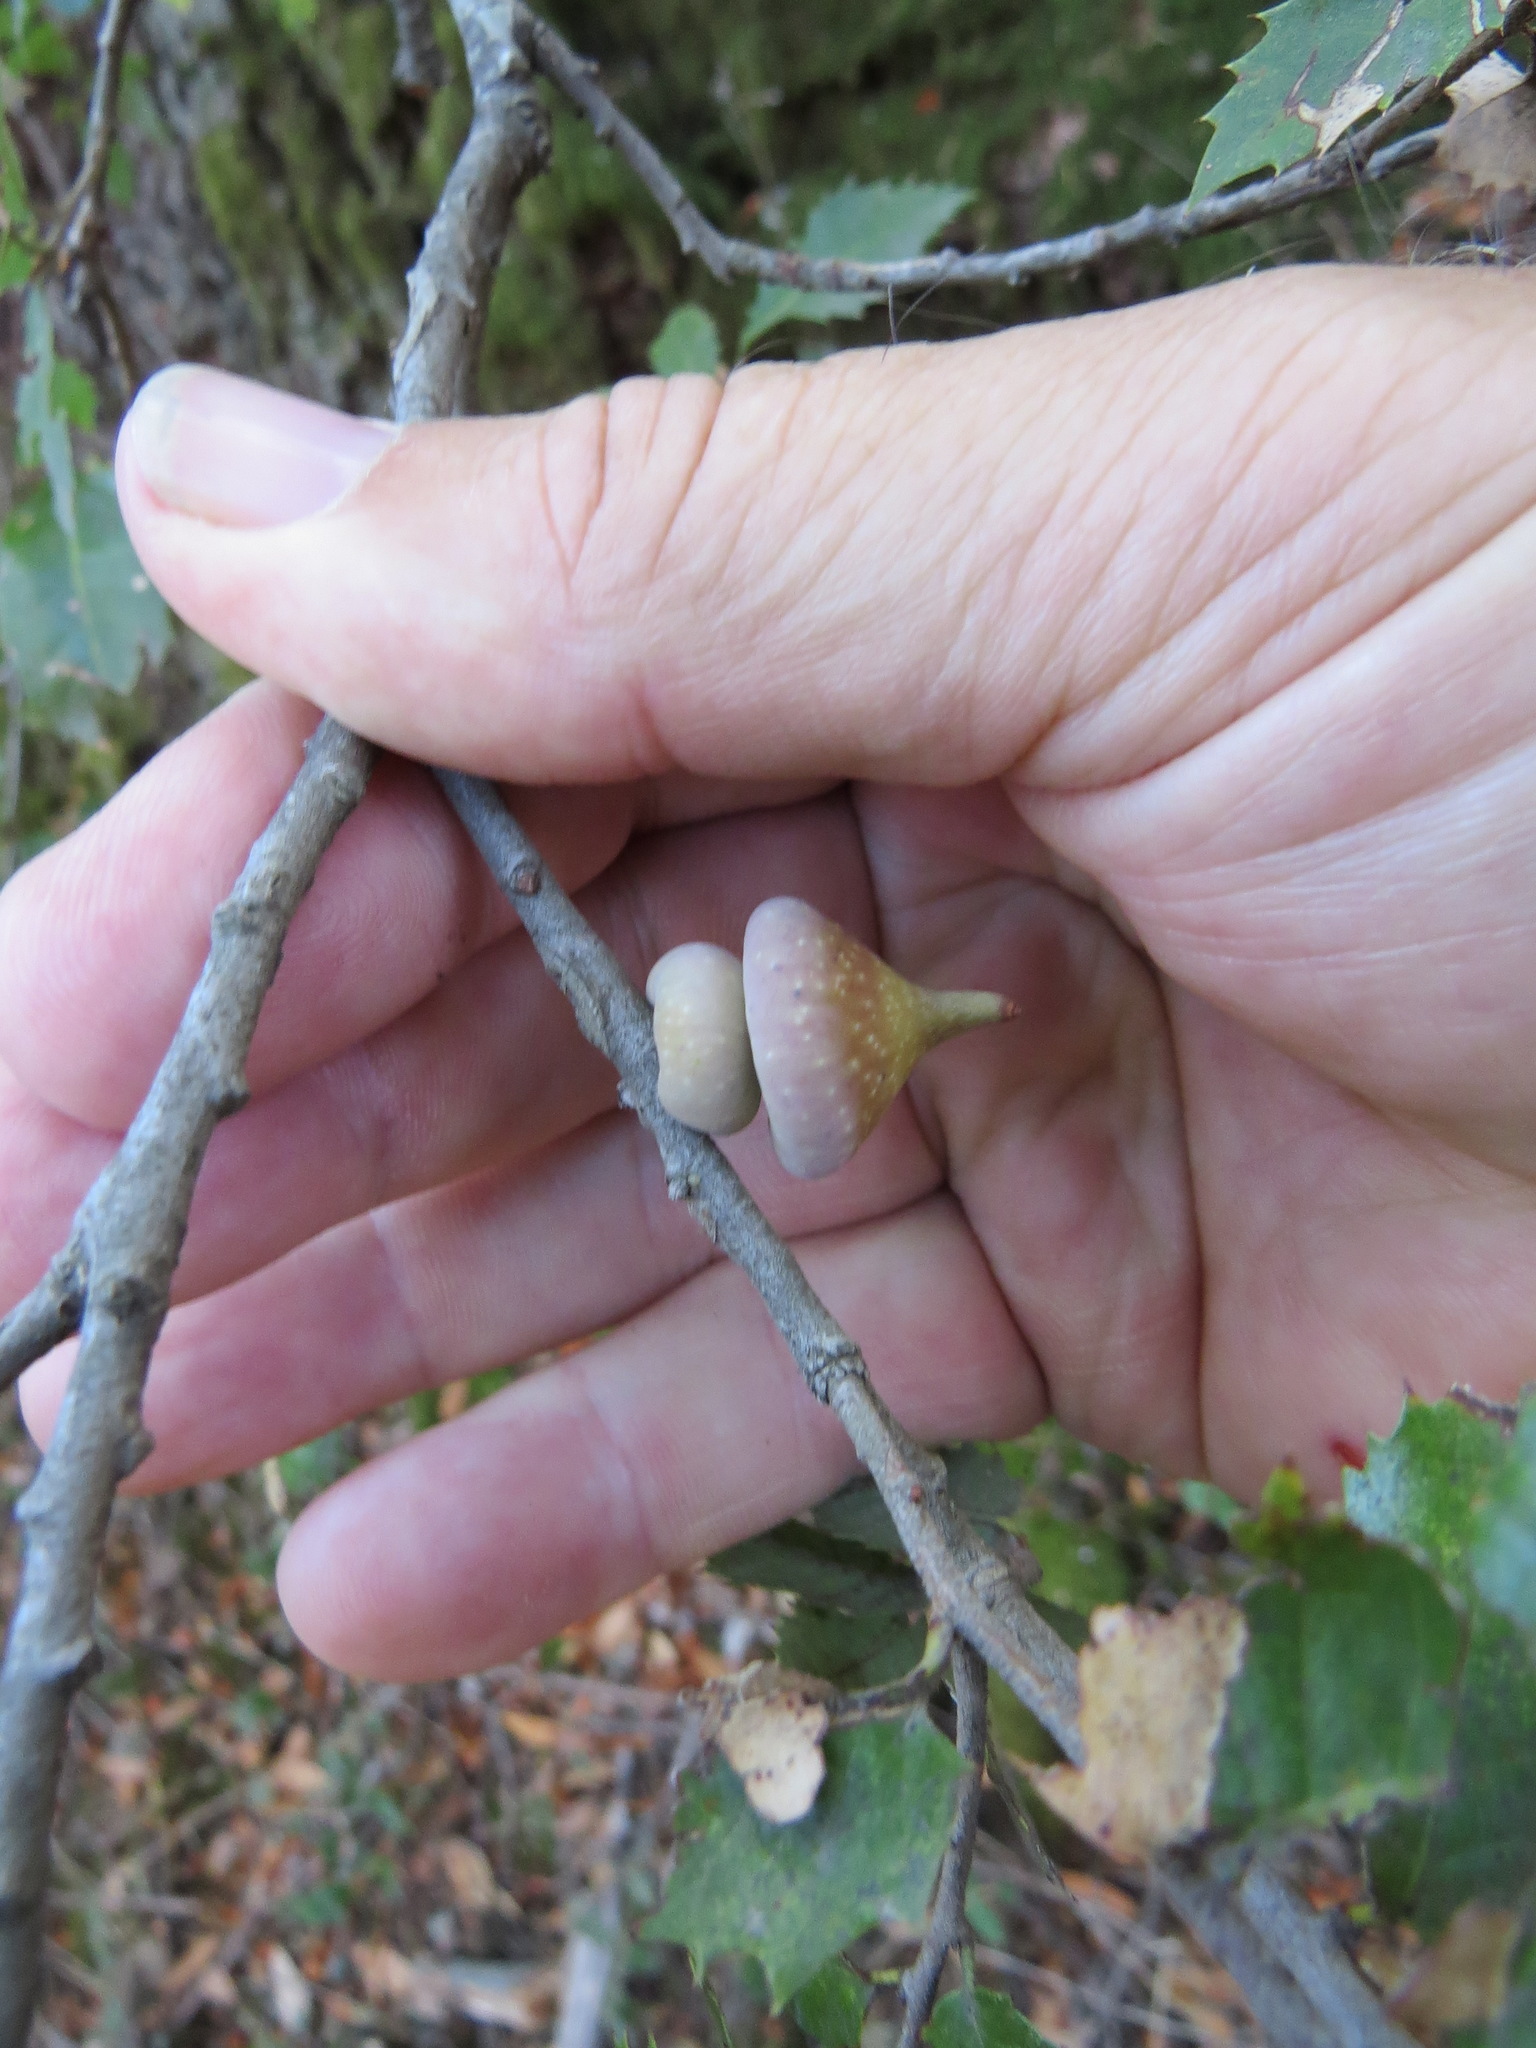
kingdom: Animalia
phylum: Arthropoda
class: Insecta
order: Hymenoptera
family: Cynipidae
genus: Heteroecus
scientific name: Heteroecus
